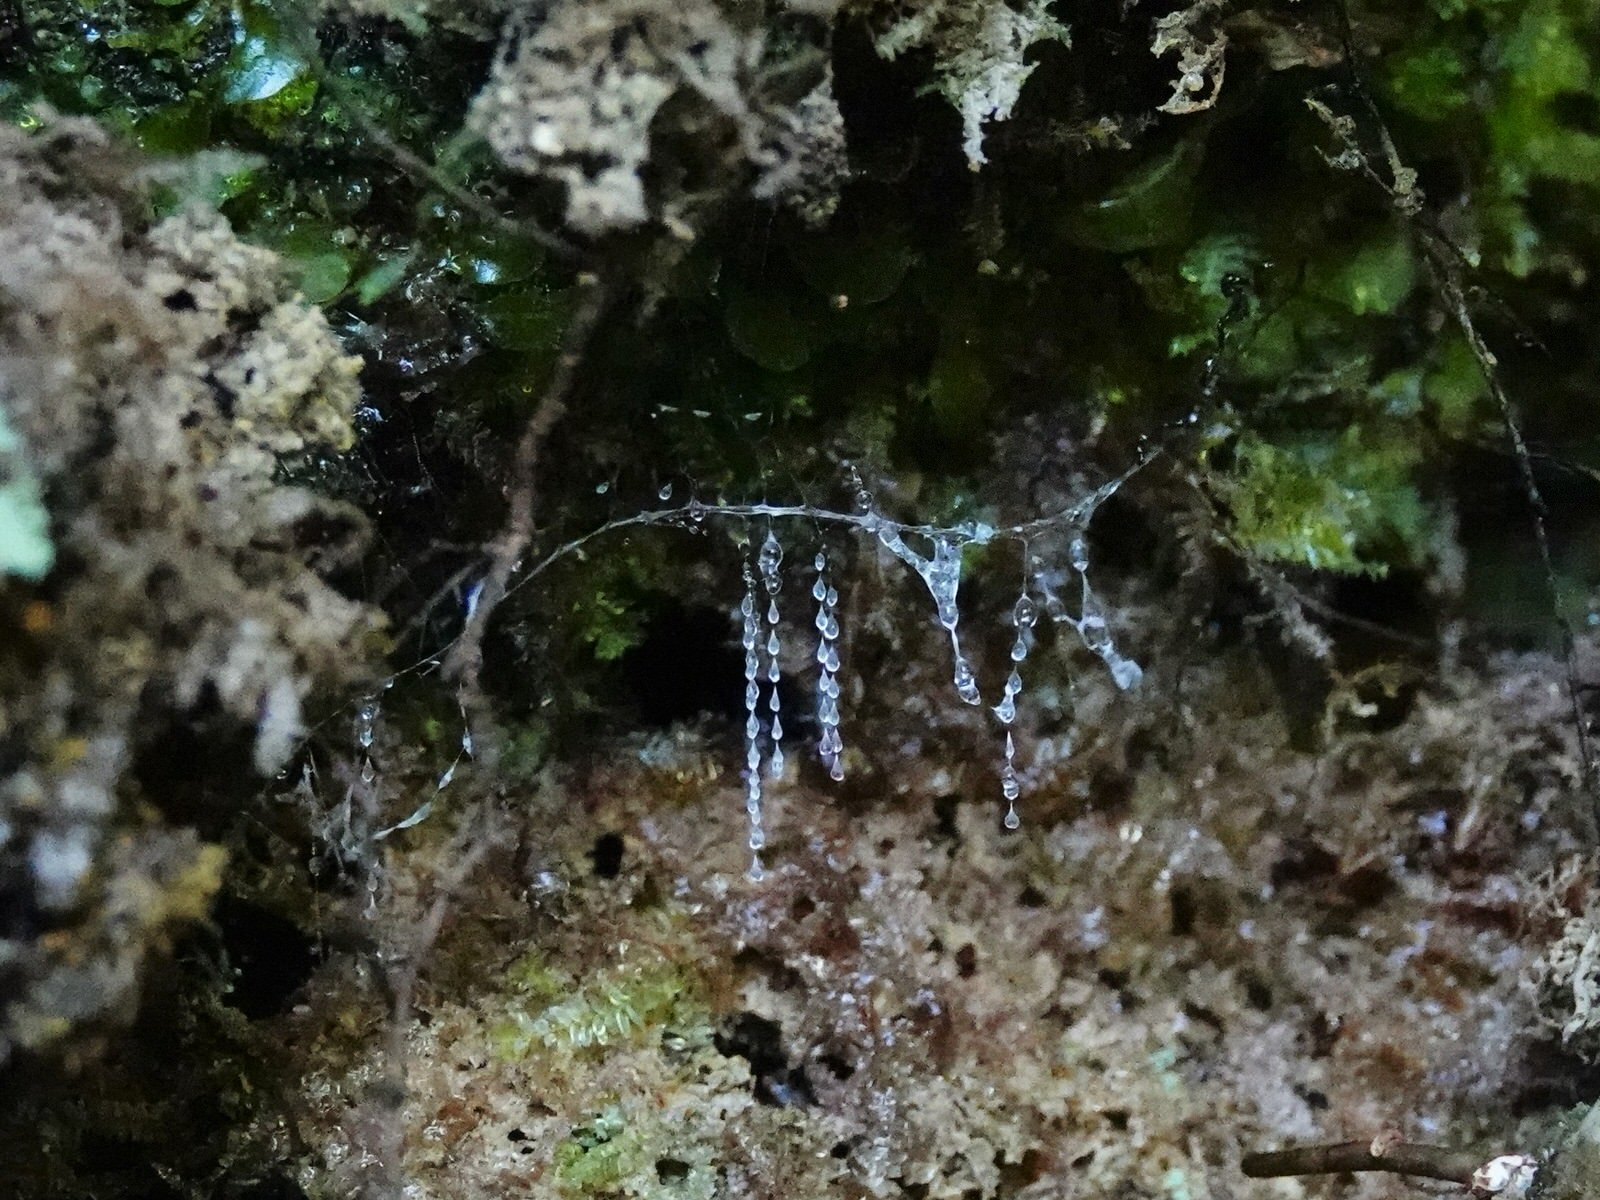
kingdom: Animalia
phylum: Arthropoda
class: Insecta
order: Diptera
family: Keroplatidae
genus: Arachnocampa
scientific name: Arachnocampa luminosa
